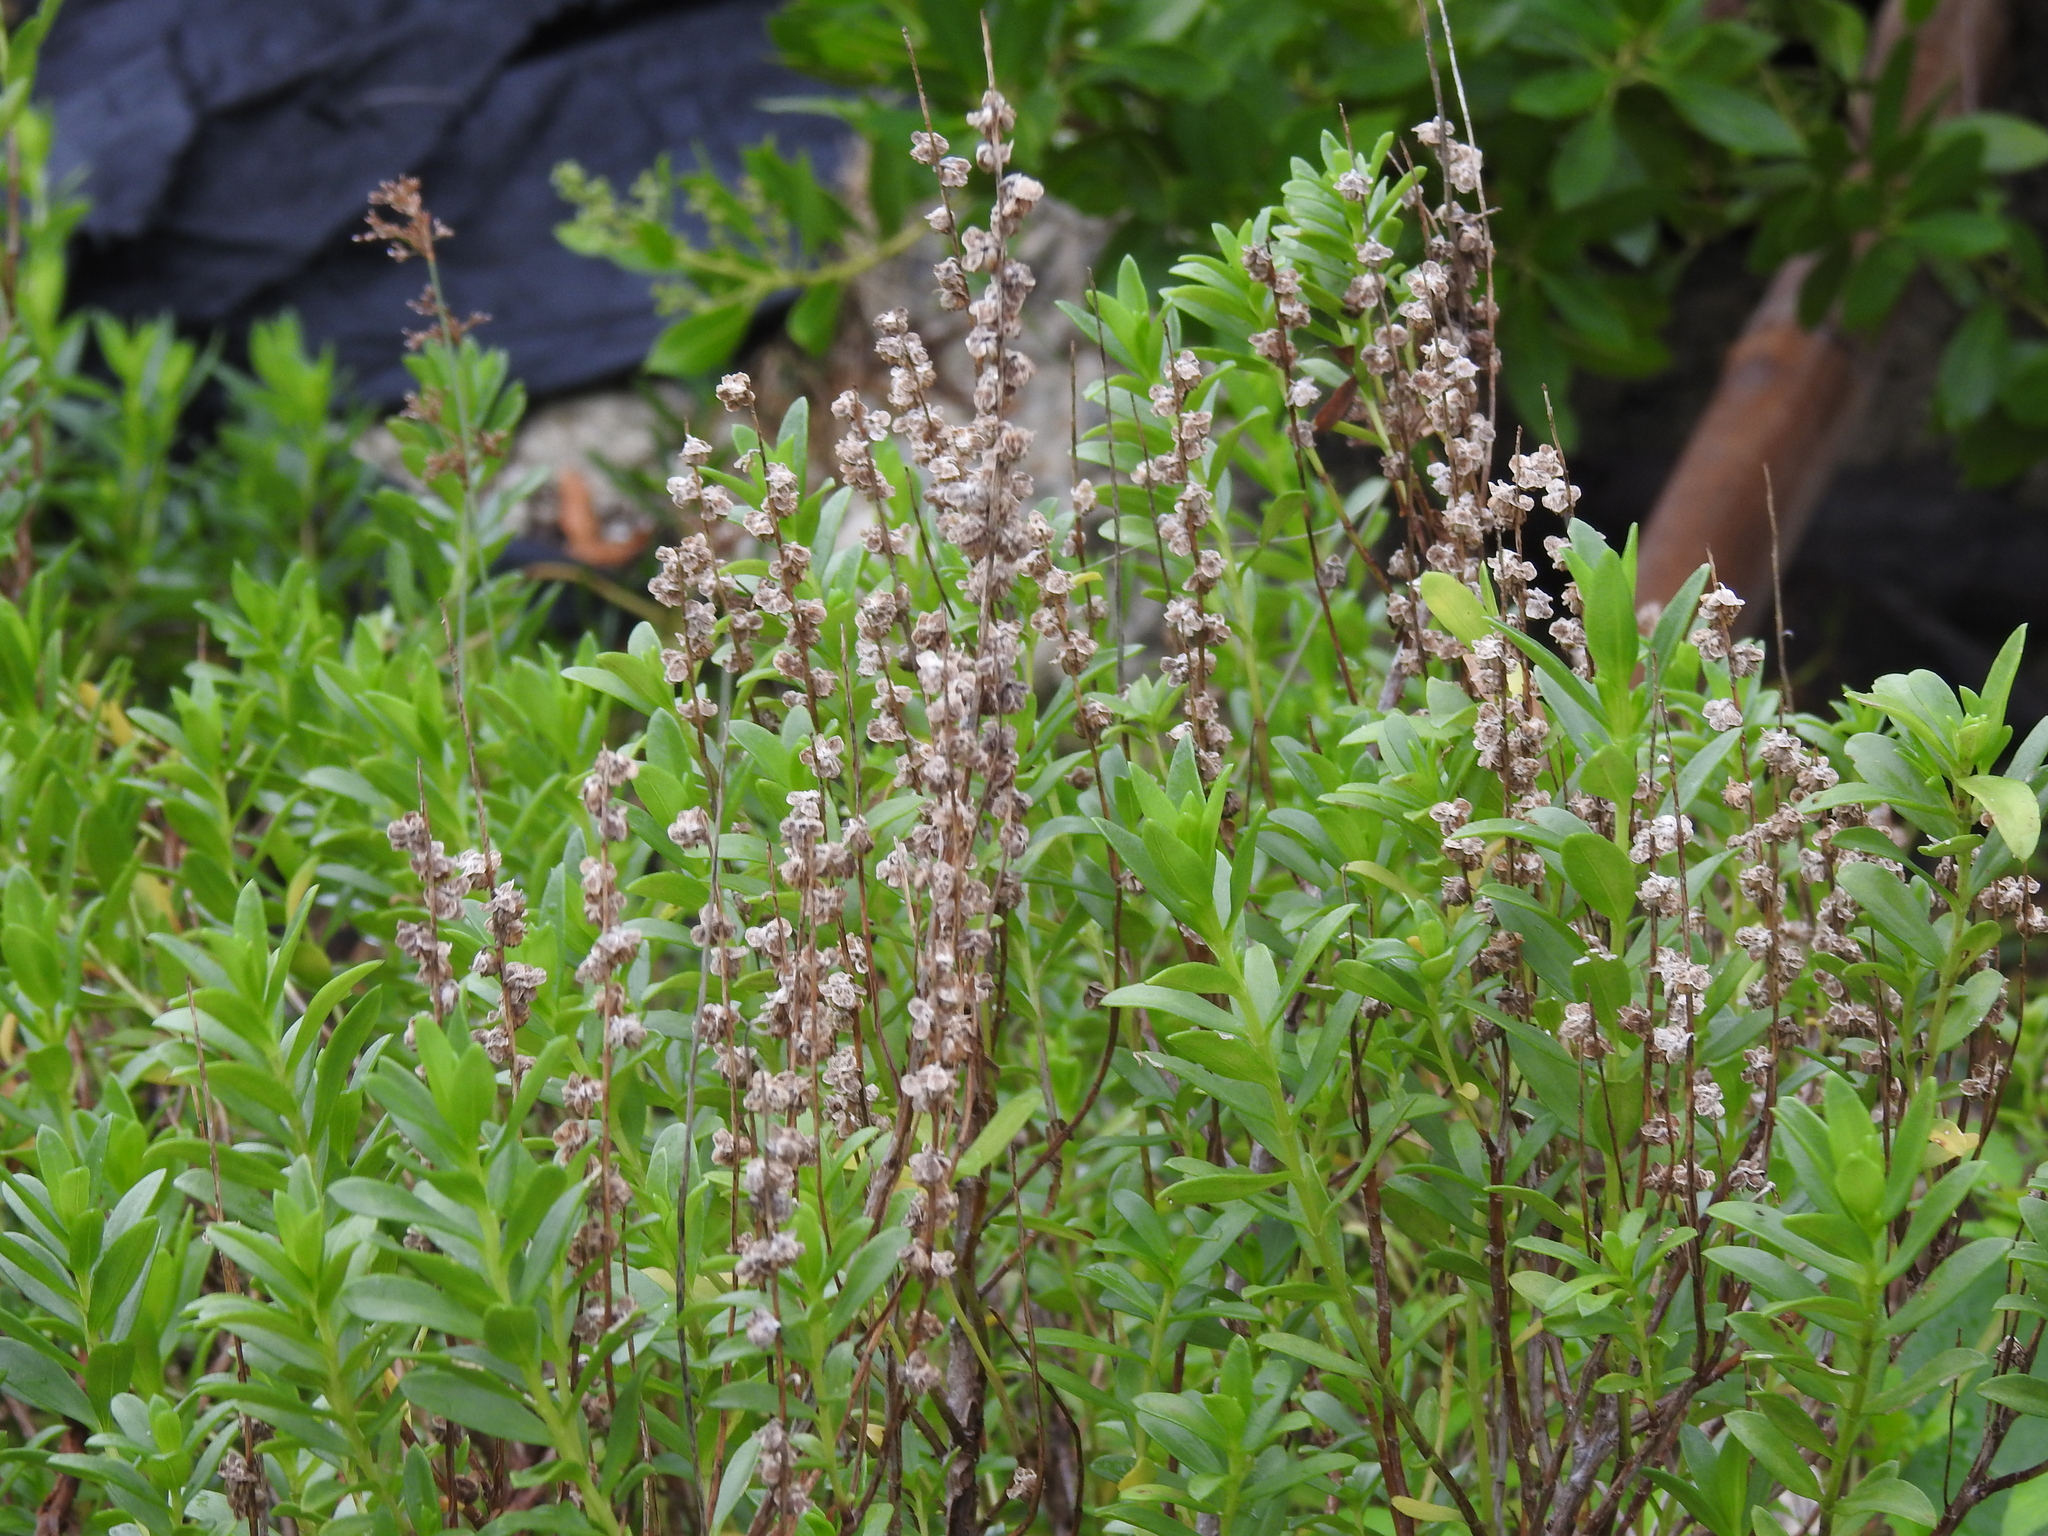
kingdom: Plantae
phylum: Tracheophyta
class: Magnoliopsida
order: Asterales
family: Asteraceae
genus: Iva
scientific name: Iva imbricata
